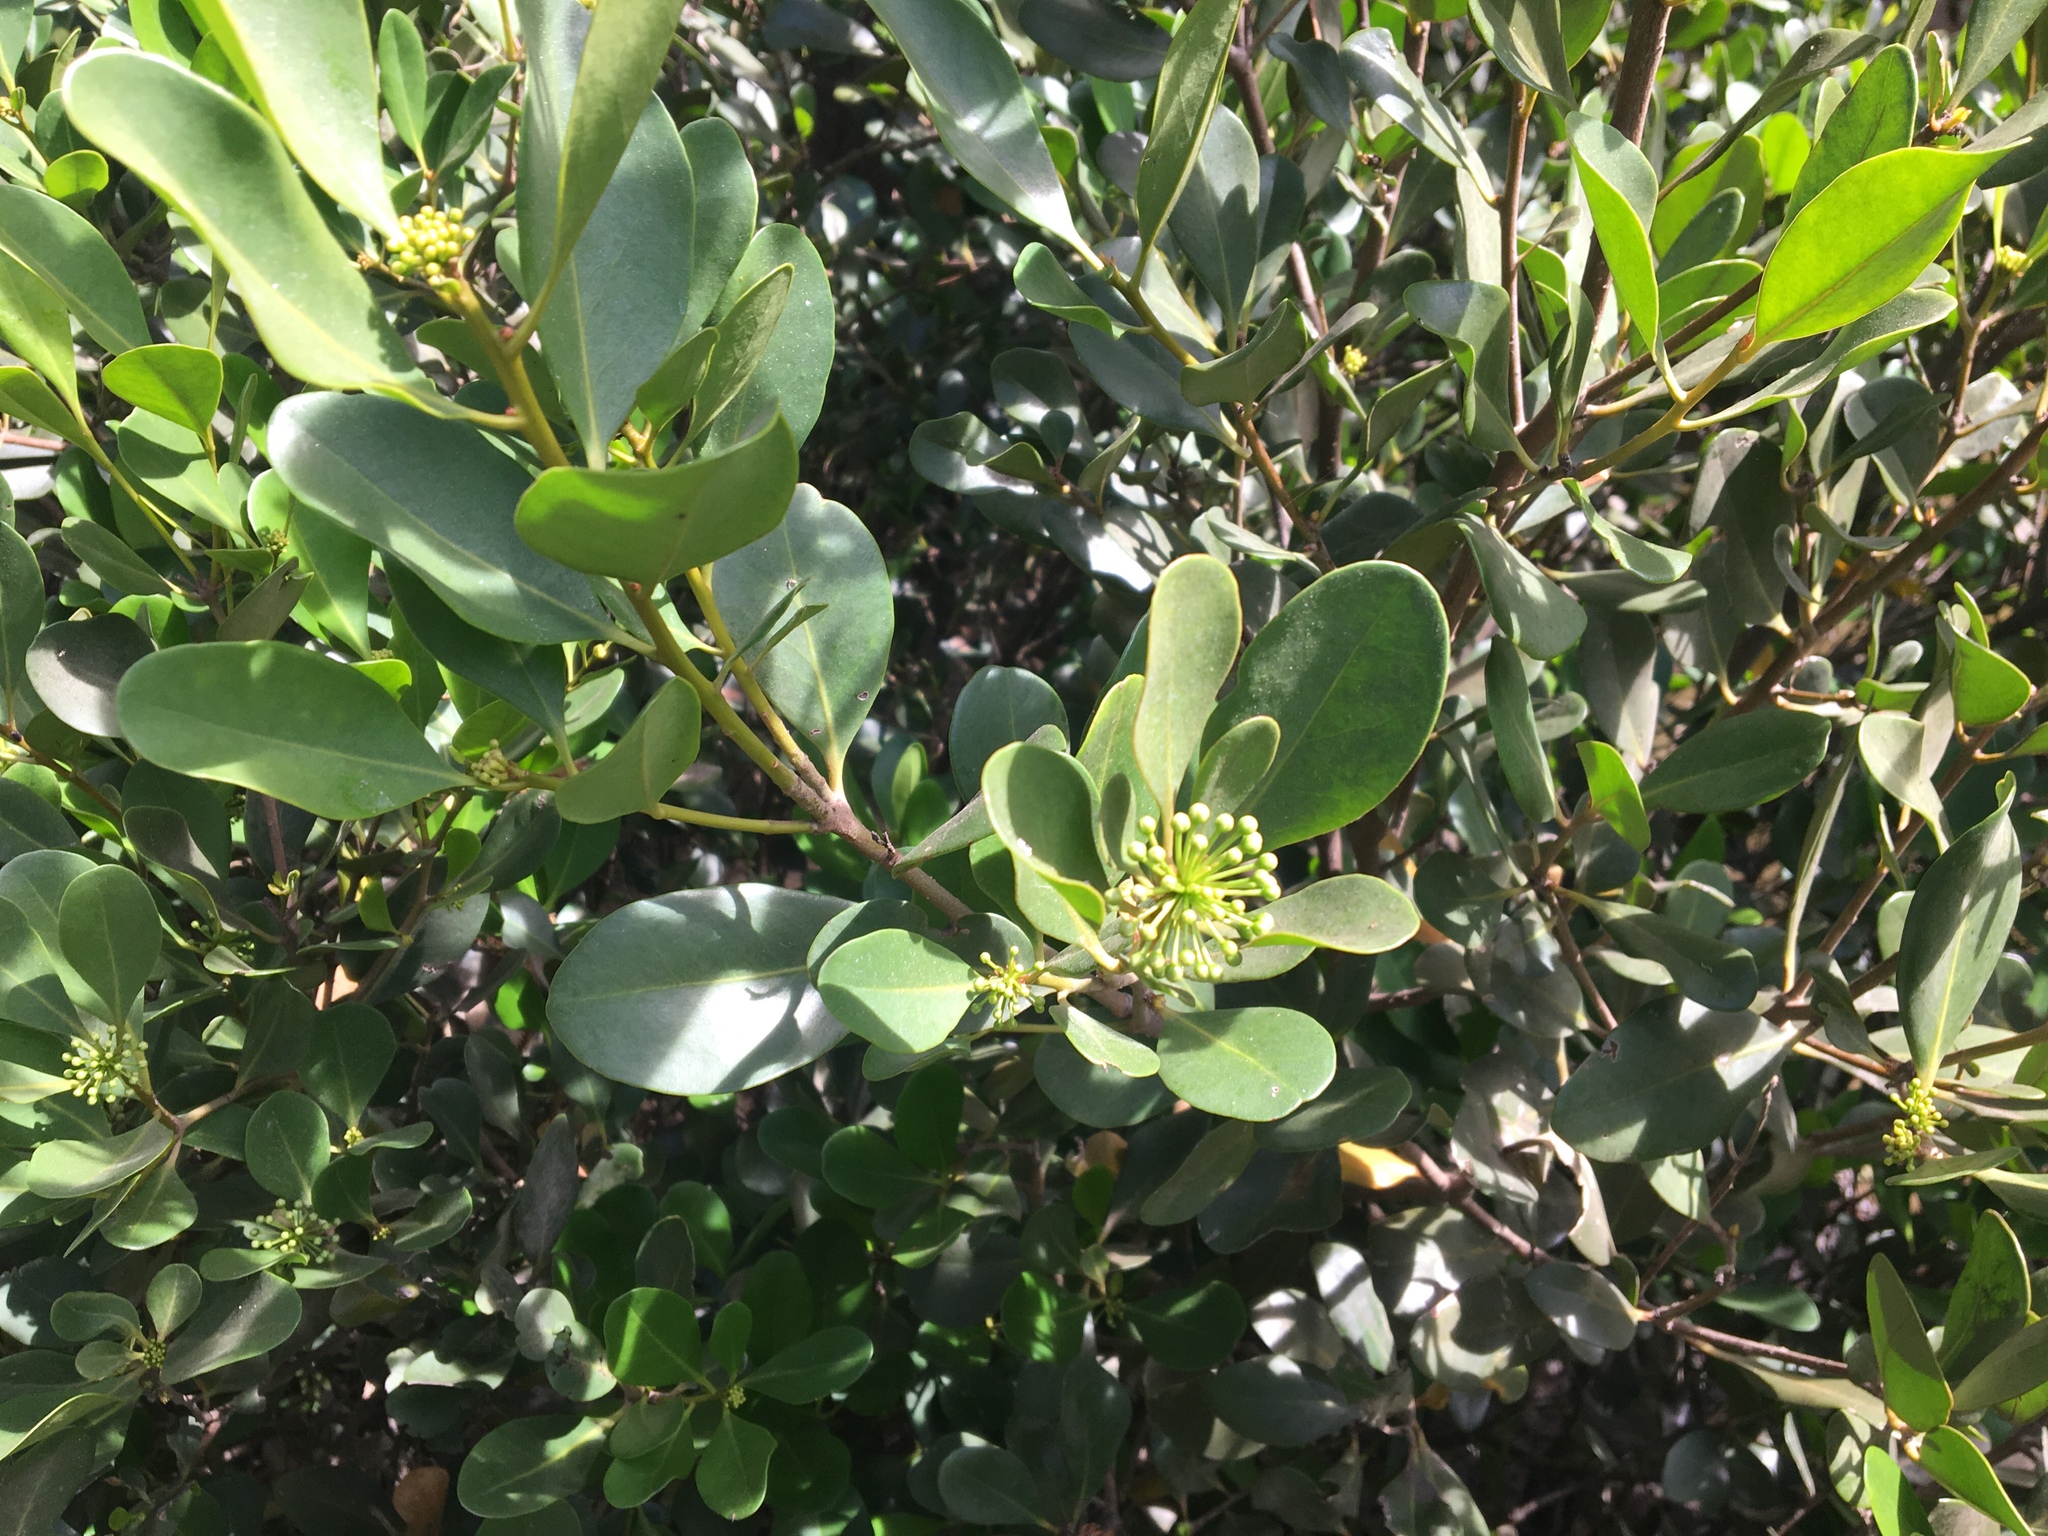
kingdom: Plantae
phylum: Tracheophyta
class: Magnoliopsida
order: Ericales
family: Primulaceae
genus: Aegiceras
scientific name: Aegiceras corniculatum
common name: River mangrove
